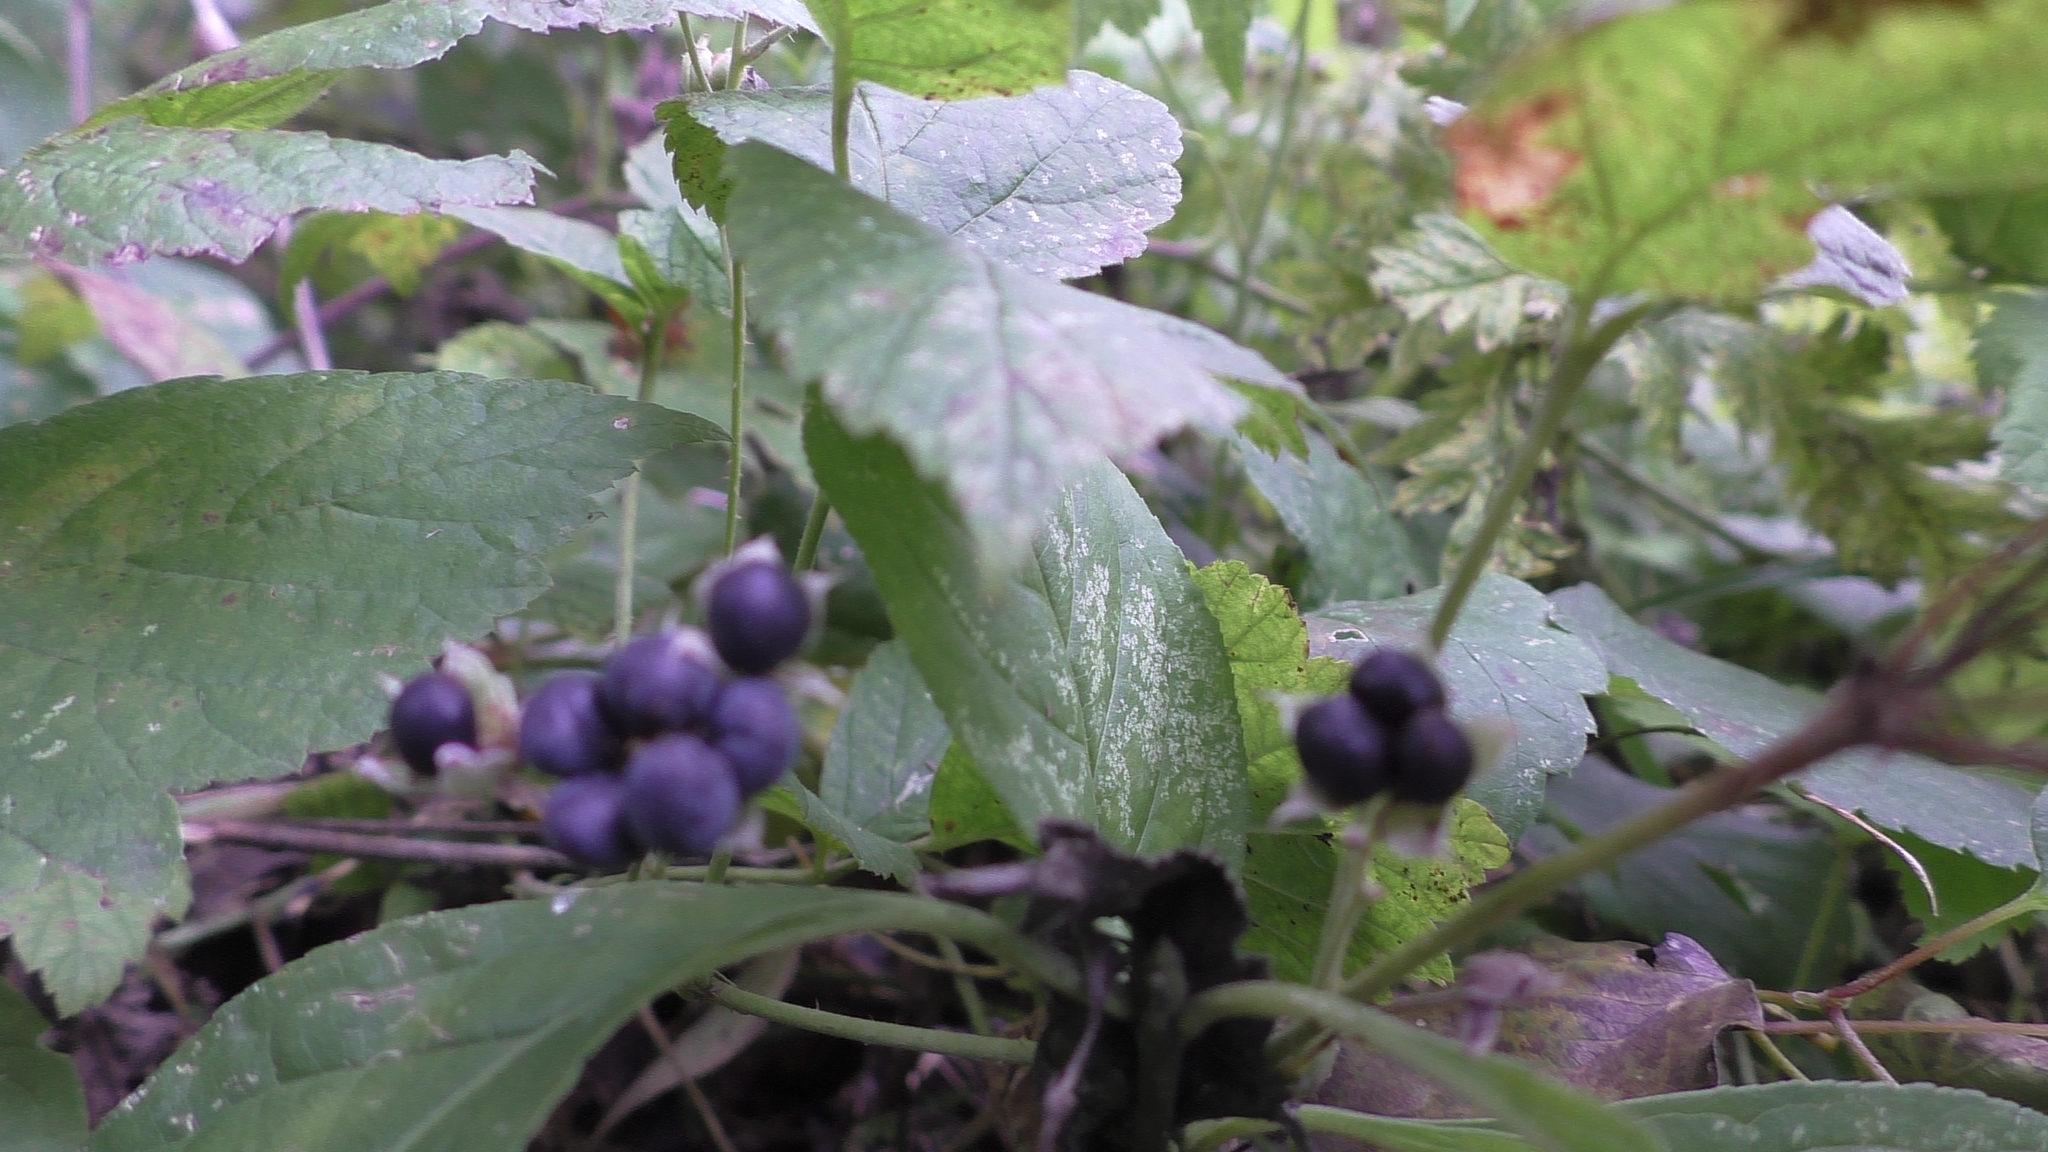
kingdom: Plantae
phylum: Tracheophyta
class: Magnoliopsida
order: Rosales
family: Rosaceae
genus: Rubus
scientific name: Rubus caesius
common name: Dewberry
